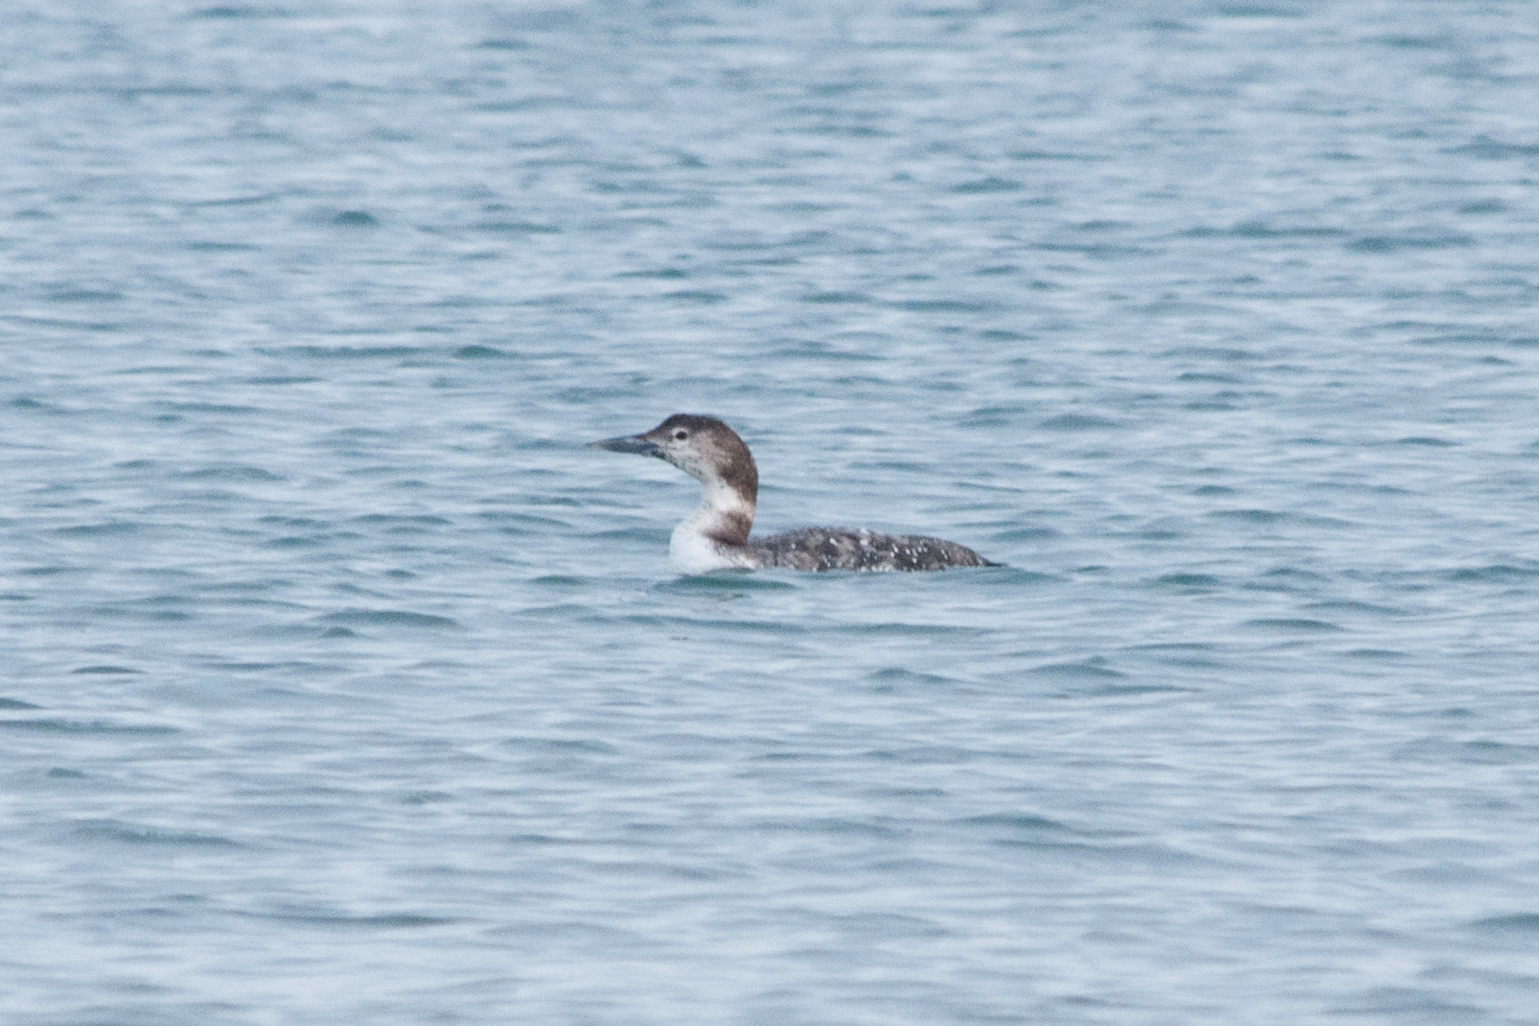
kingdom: Animalia
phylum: Chordata
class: Aves
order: Gaviiformes
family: Gaviidae
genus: Gavia
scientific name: Gavia immer
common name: Common loon
